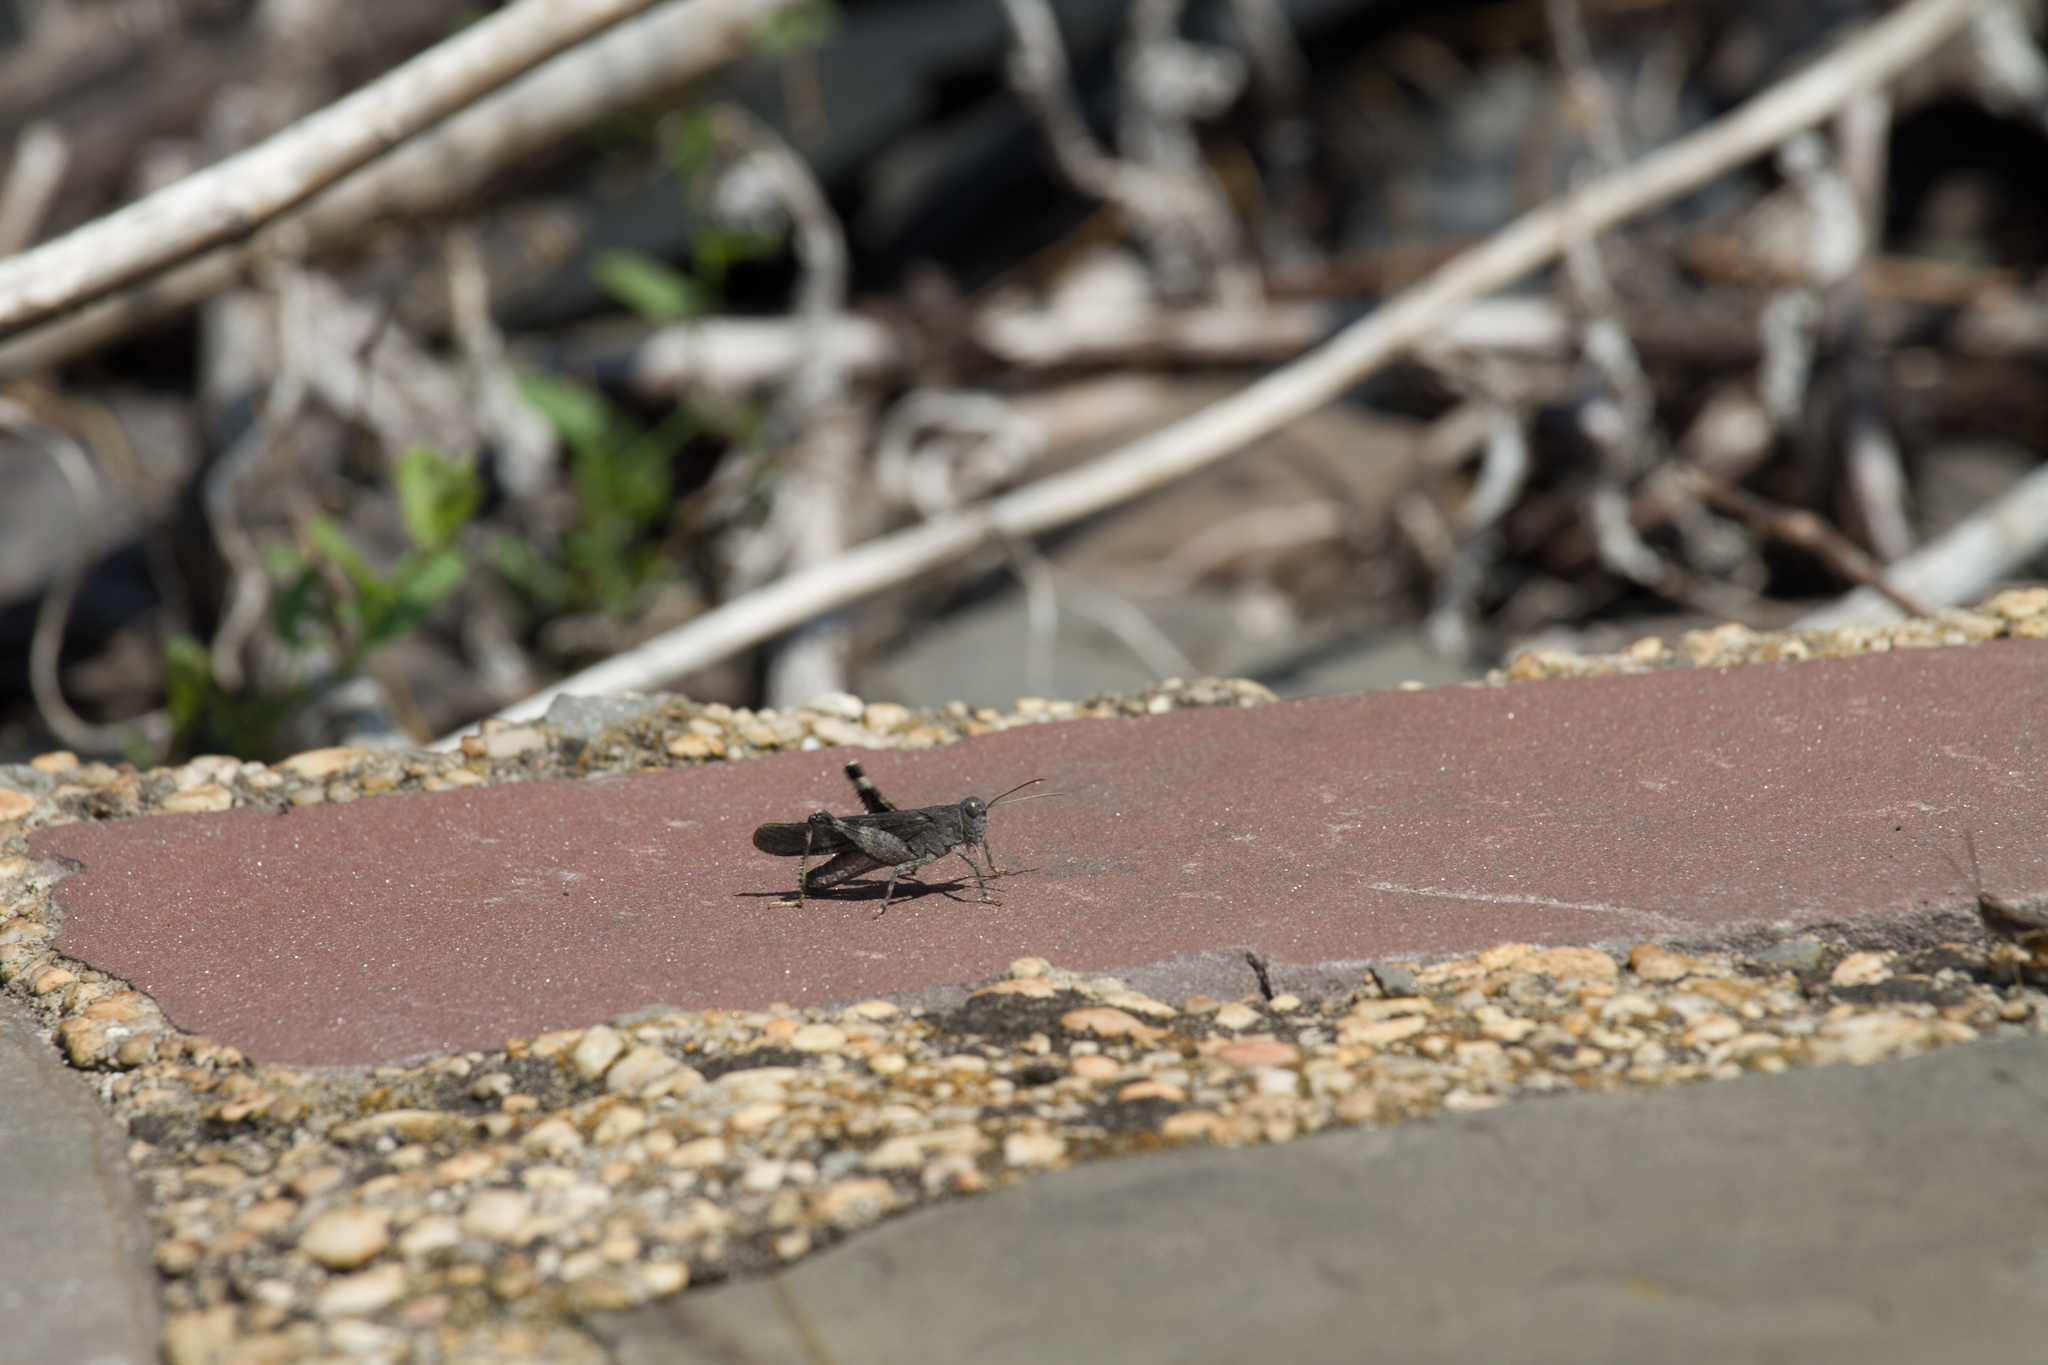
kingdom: Animalia
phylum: Arthropoda
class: Insecta
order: Orthoptera
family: Acrididae
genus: Oedipoda
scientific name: Oedipoda germanica
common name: Red band-winged grasshopper
